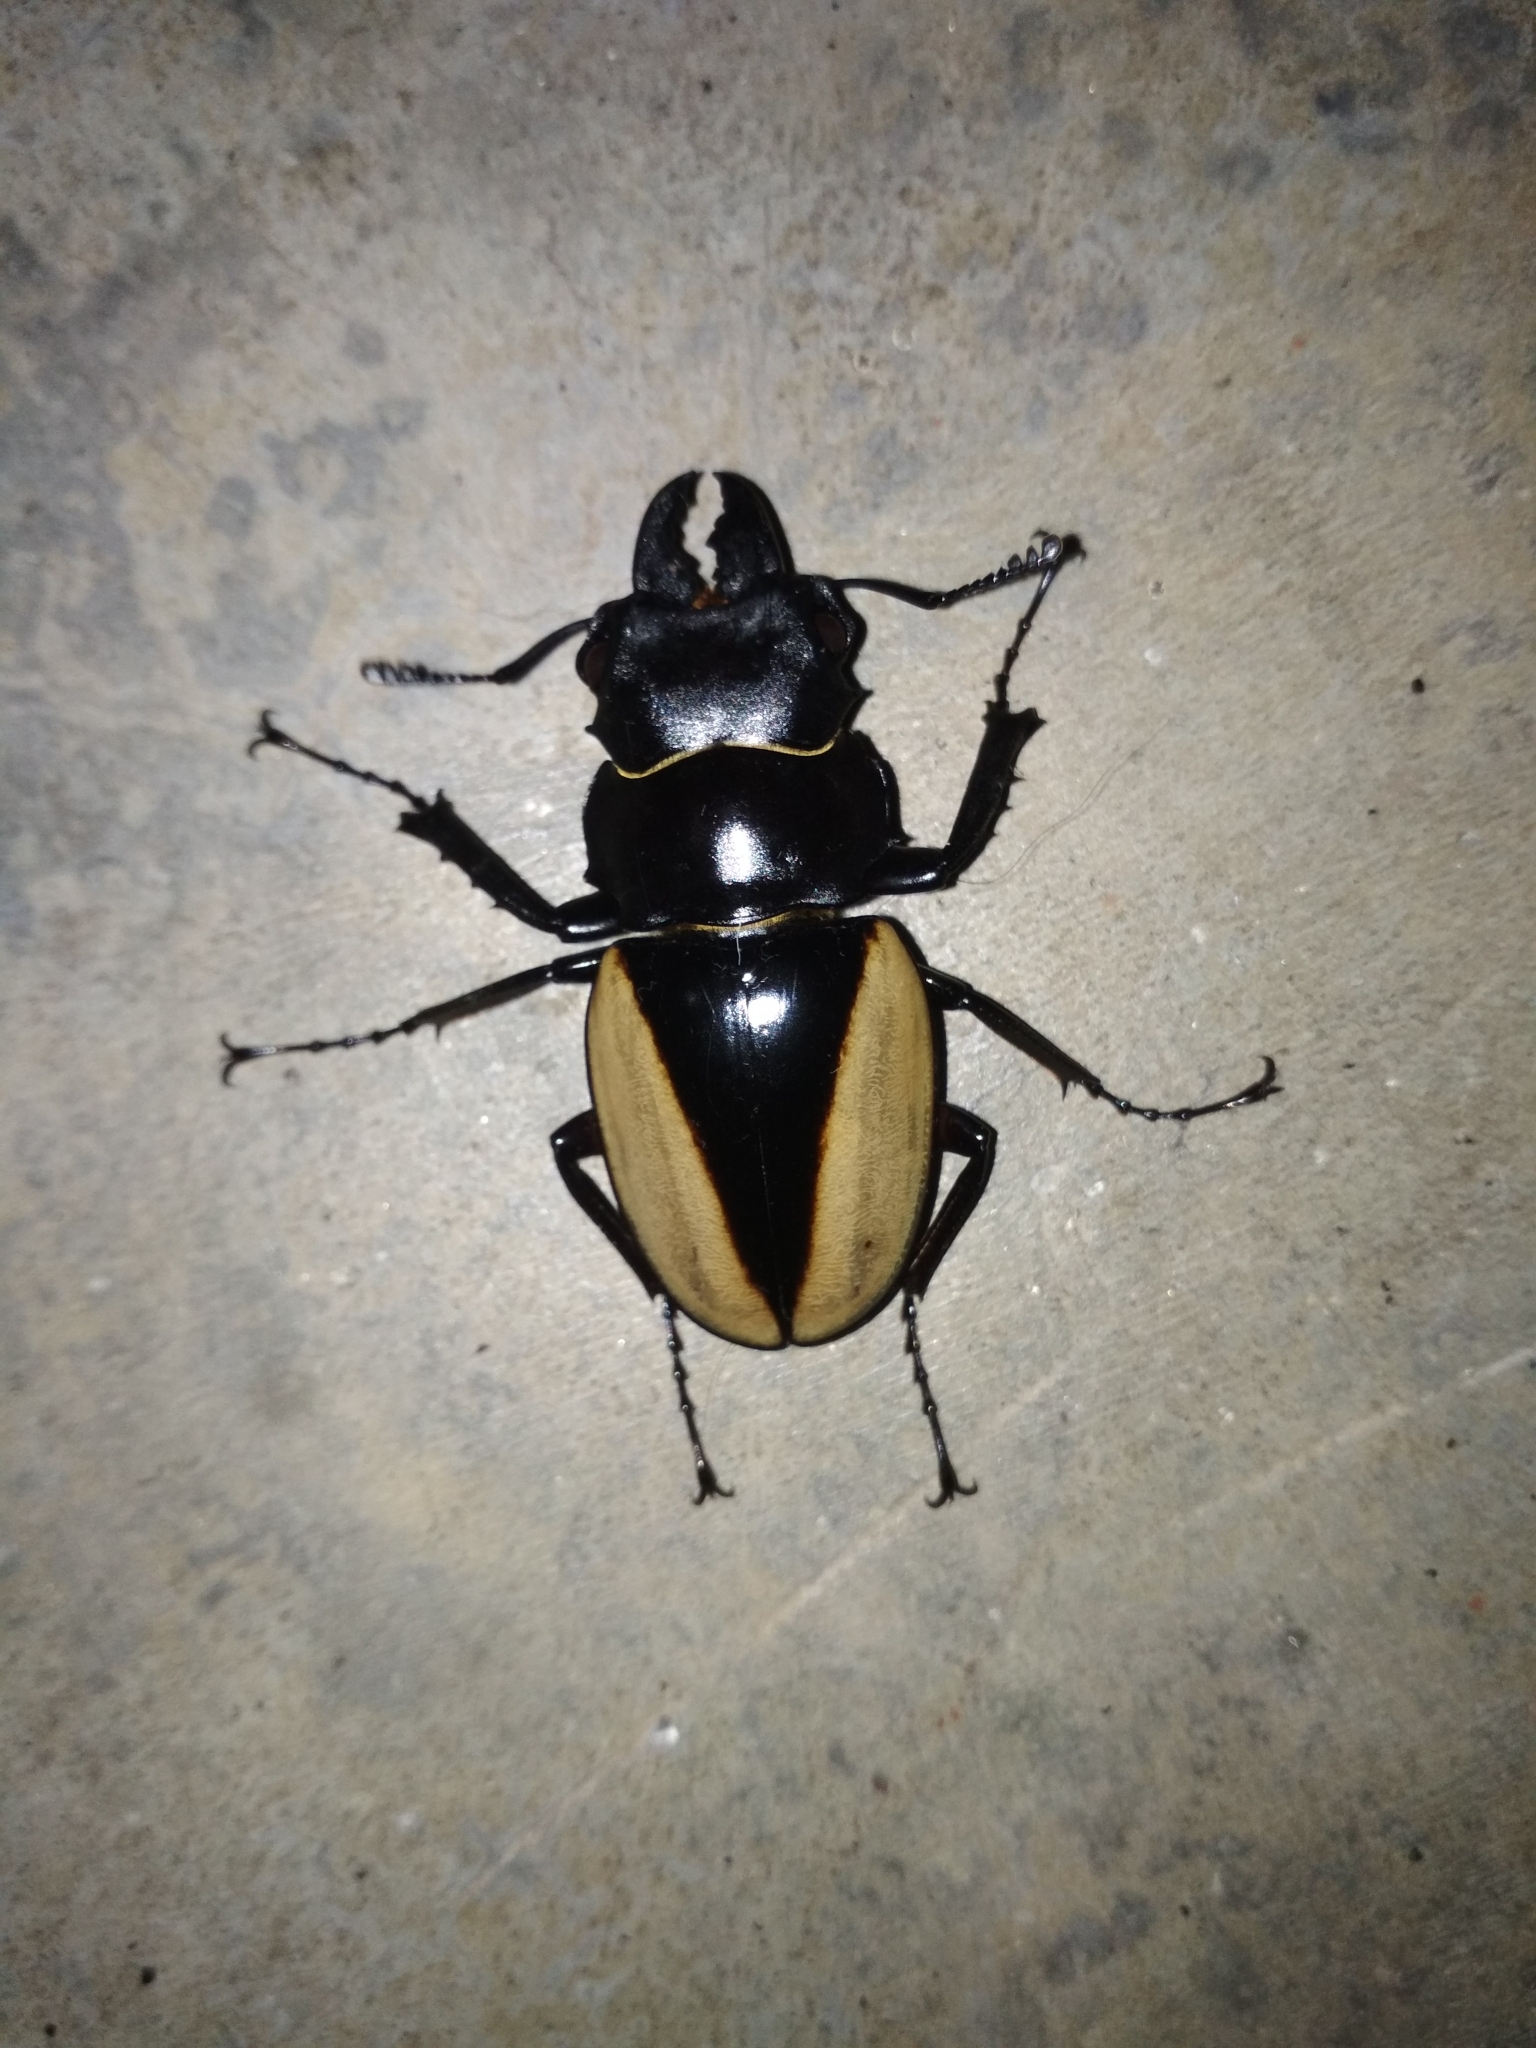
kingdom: Animalia
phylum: Arthropoda
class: Insecta
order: Coleoptera
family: Lucanidae
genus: Odontolabis
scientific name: Odontolabis cuvera
